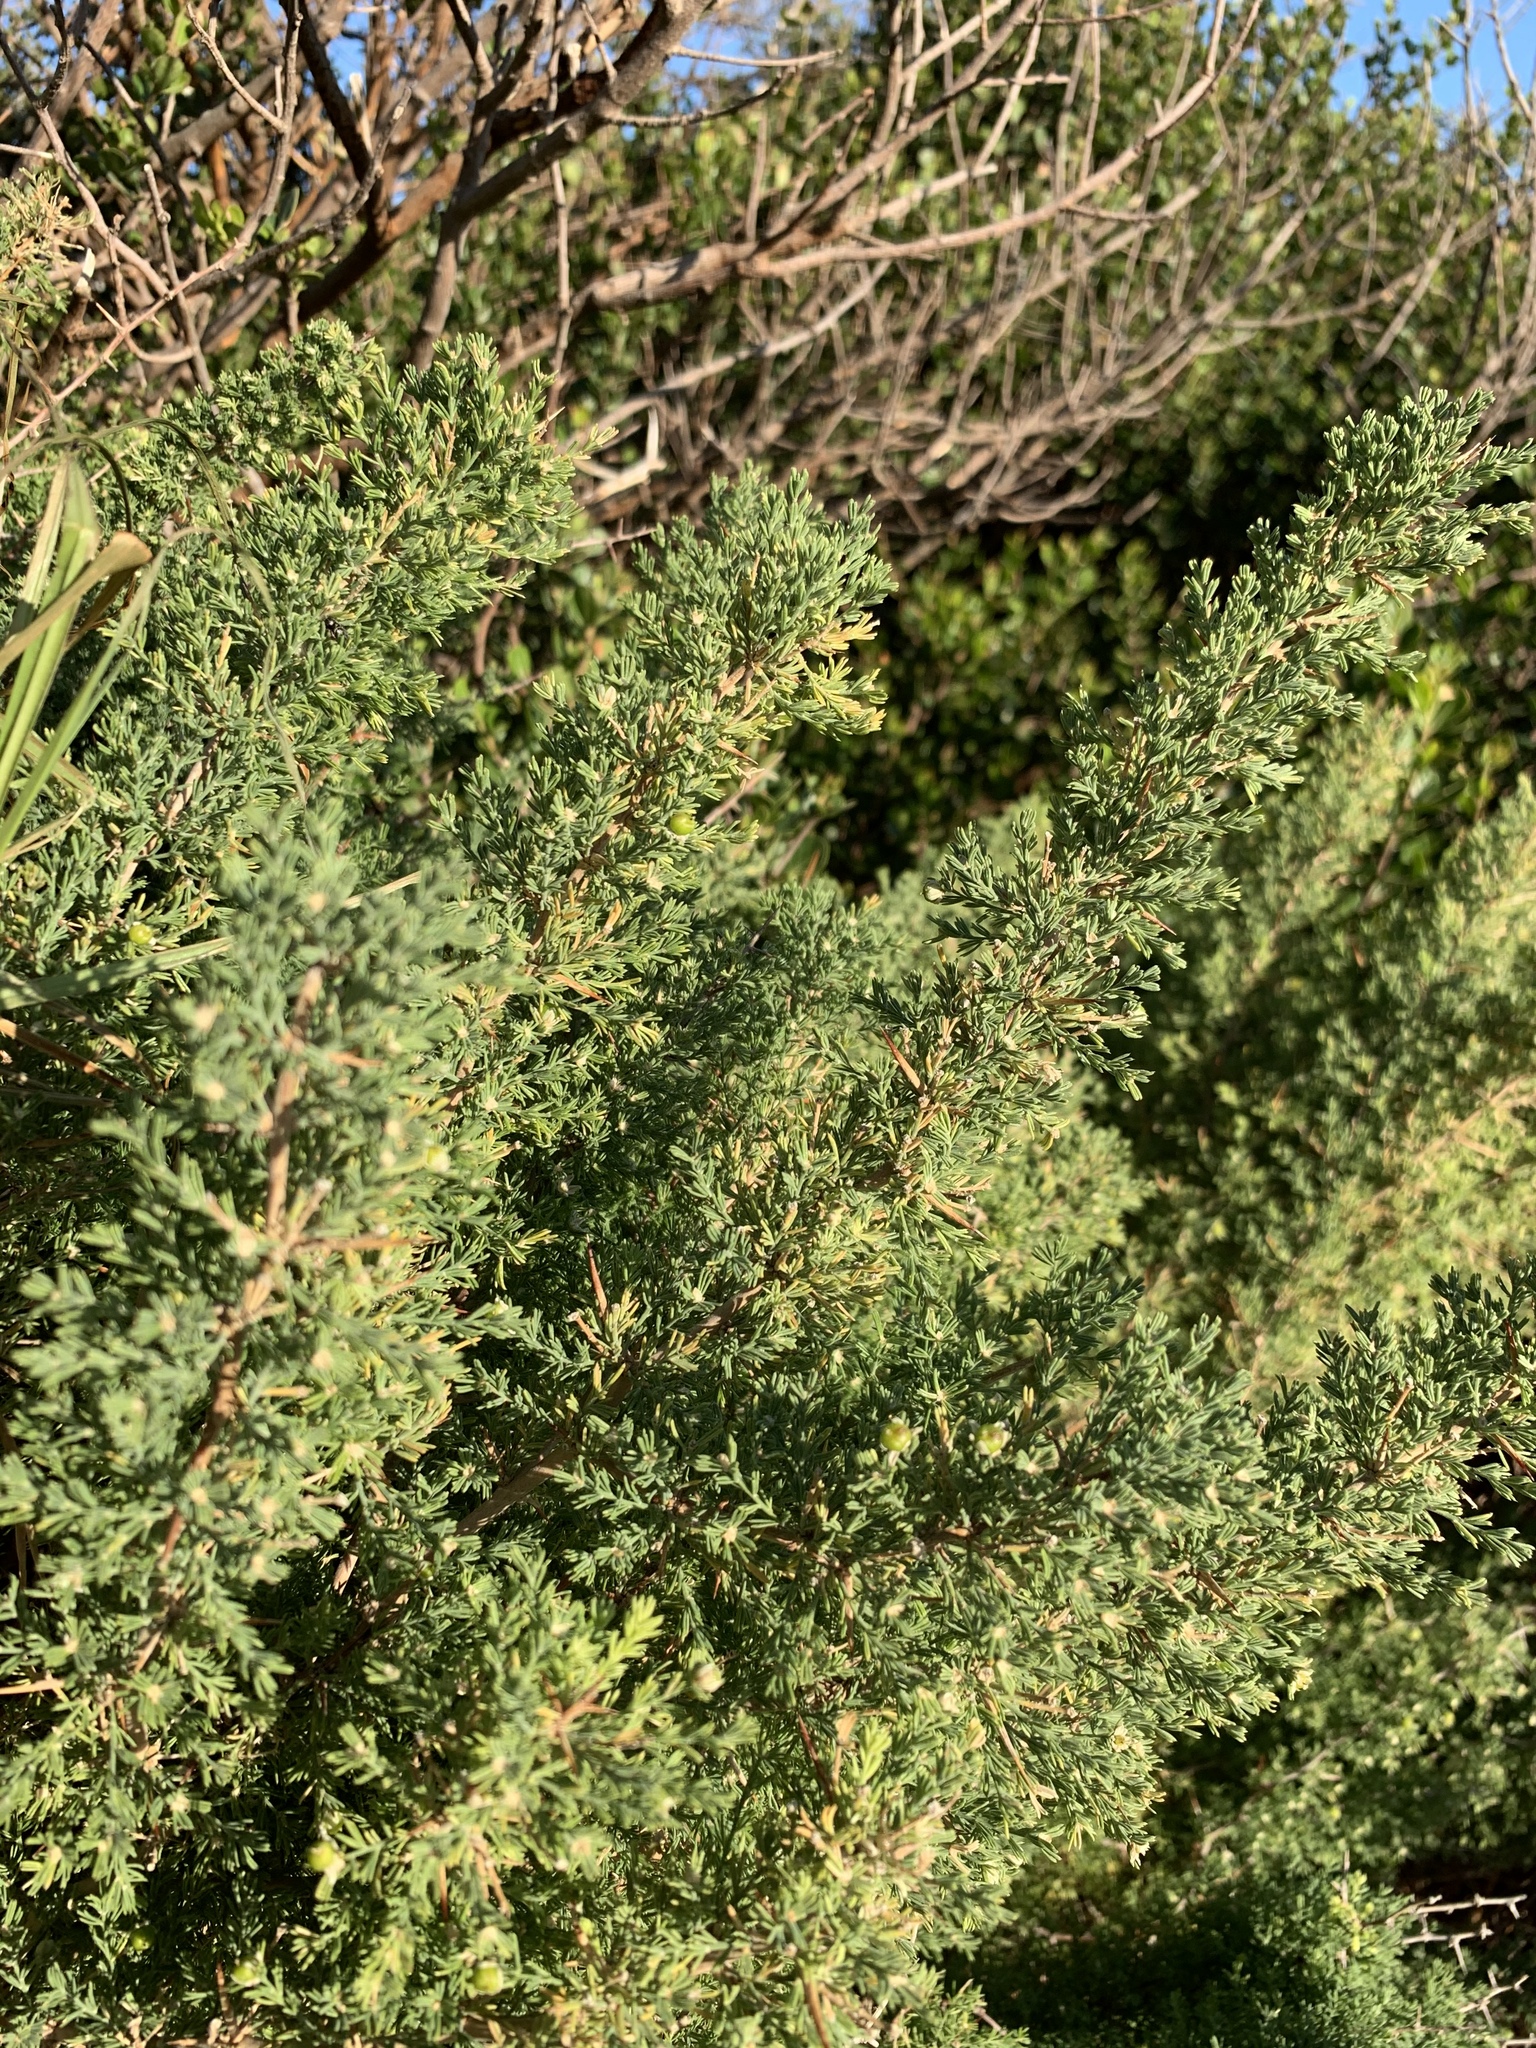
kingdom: Plantae
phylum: Tracheophyta
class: Liliopsida
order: Asparagales
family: Asparagaceae
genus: Asparagus
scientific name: Asparagus capensis
